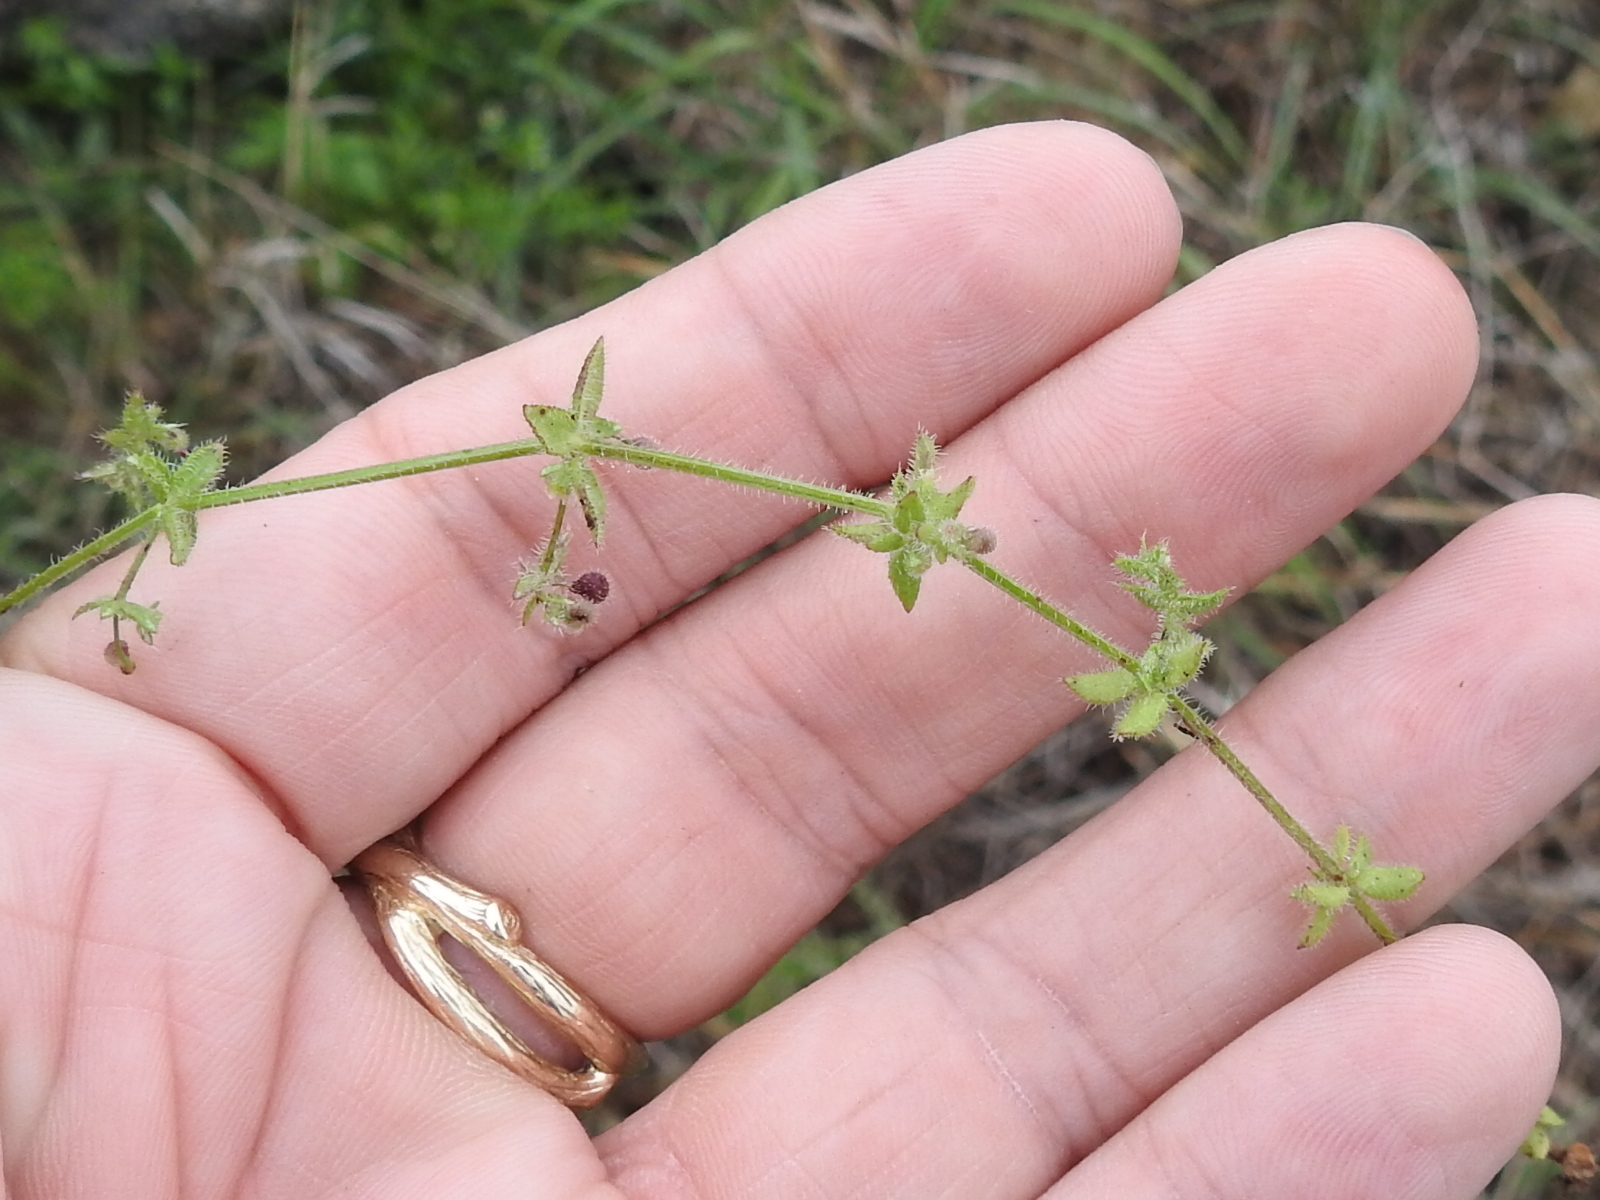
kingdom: Plantae
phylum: Tracheophyta
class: Magnoliopsida
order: Gentianales
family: Rubiaceae
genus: Galium
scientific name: Galium pilosum
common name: Hairy bedstraw
